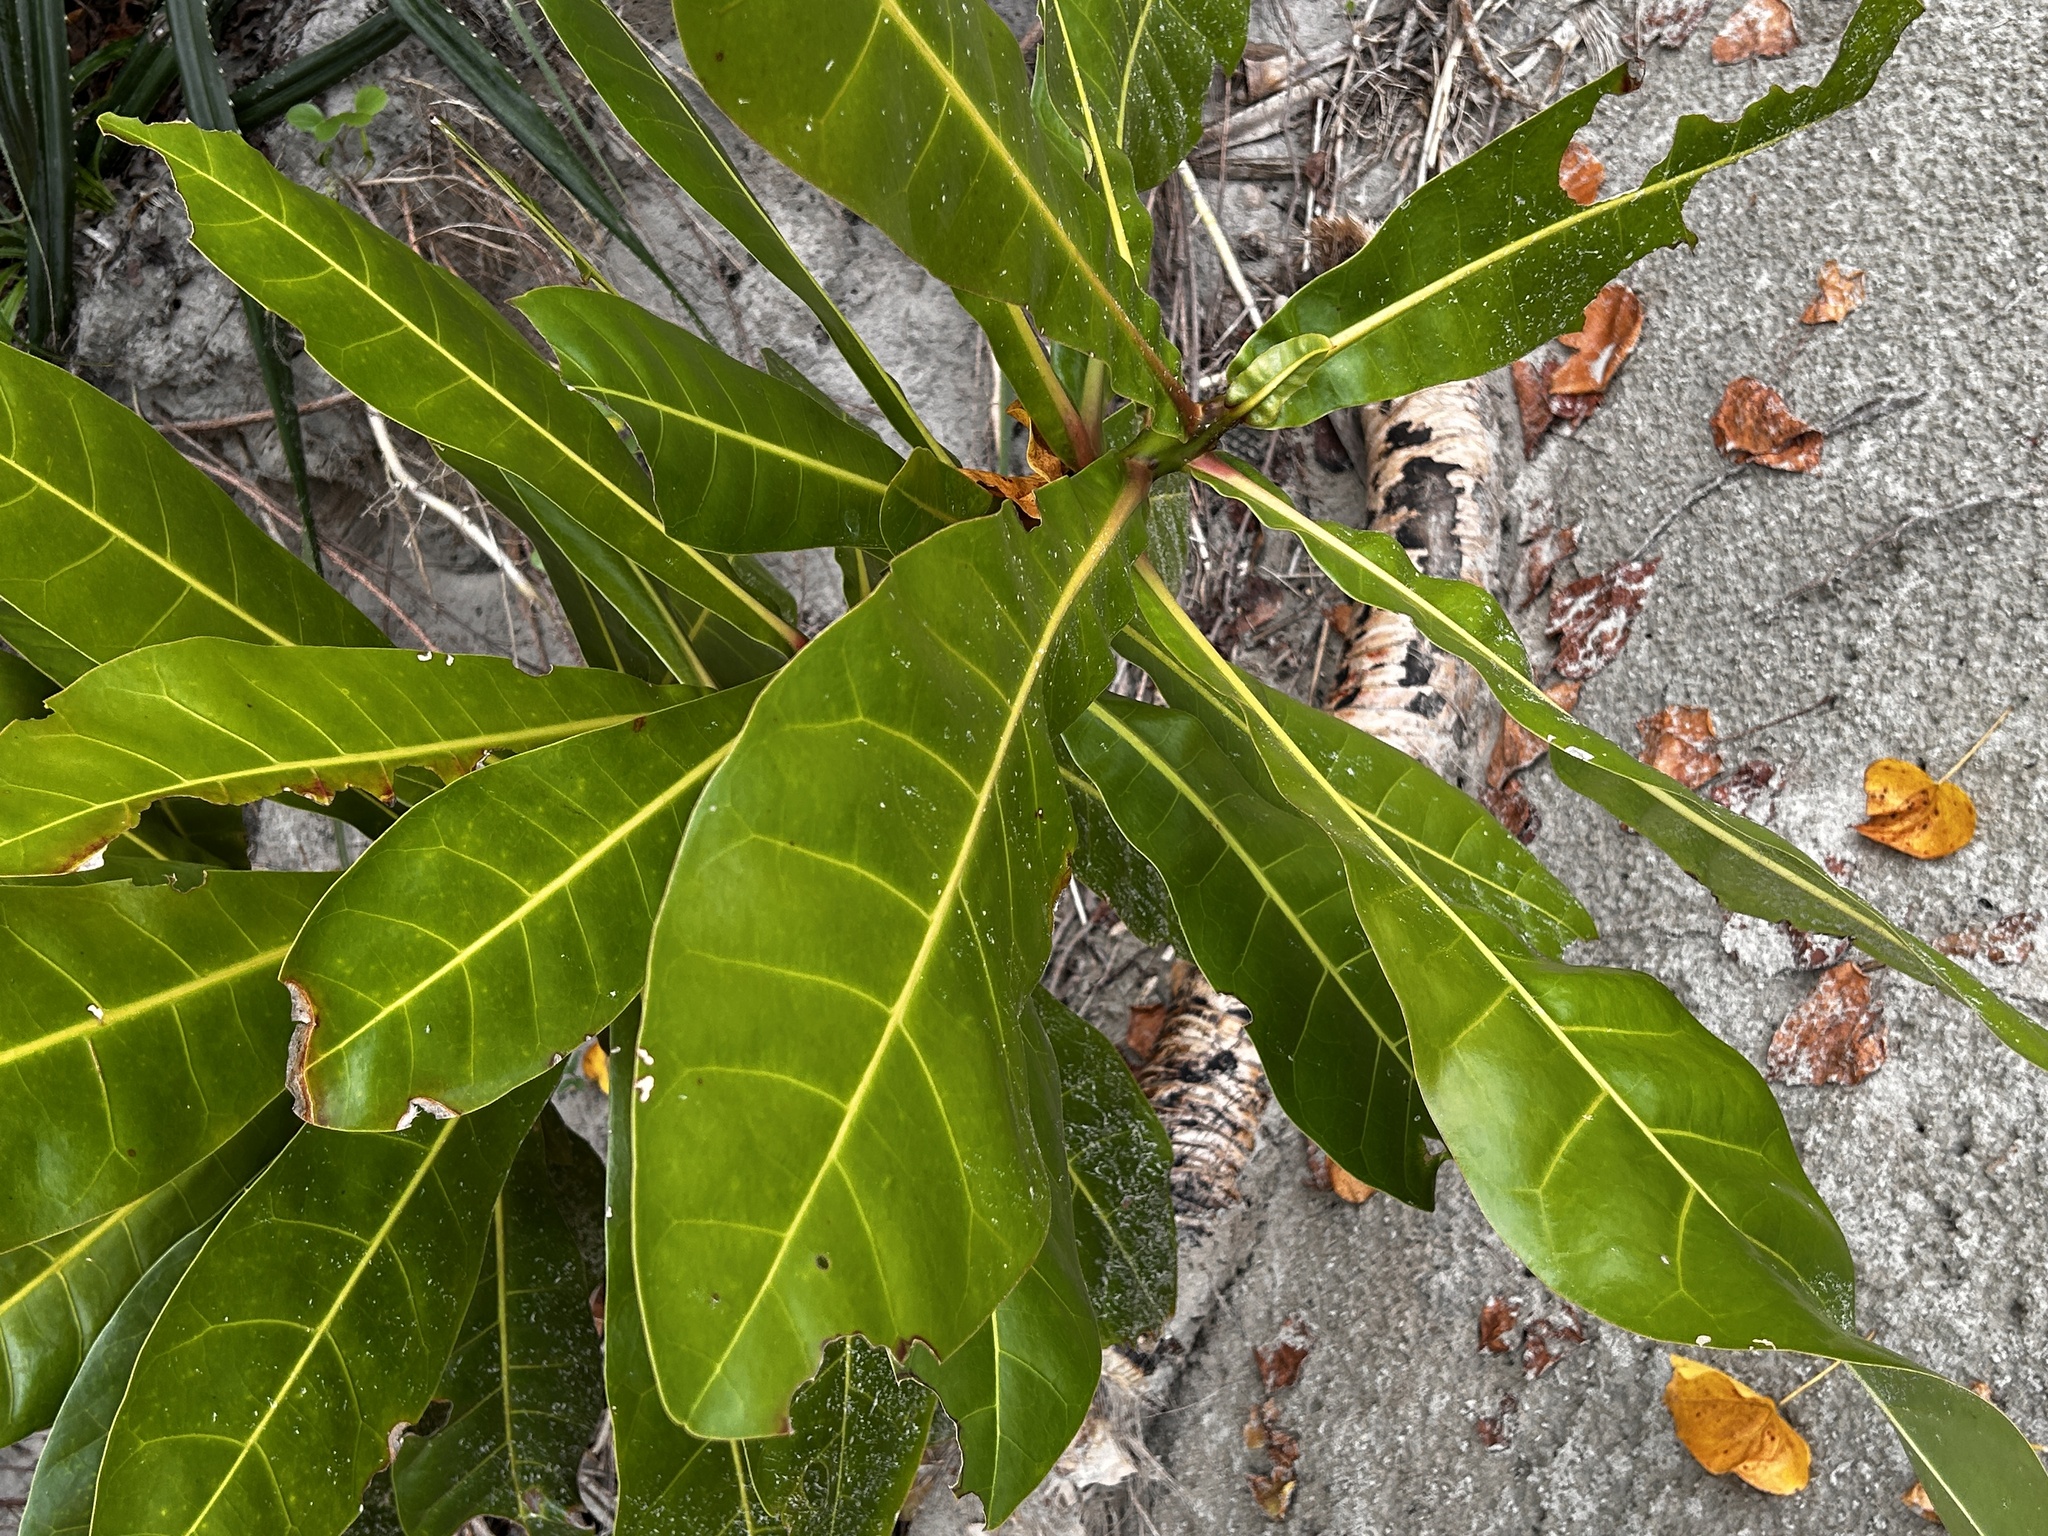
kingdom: Plantae
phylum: Tracheophyta
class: Magnoliopsida
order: Ericales
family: Lecythidaceae
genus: Barringtonia
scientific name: Barringtonia asiatica
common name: Mango-pine
